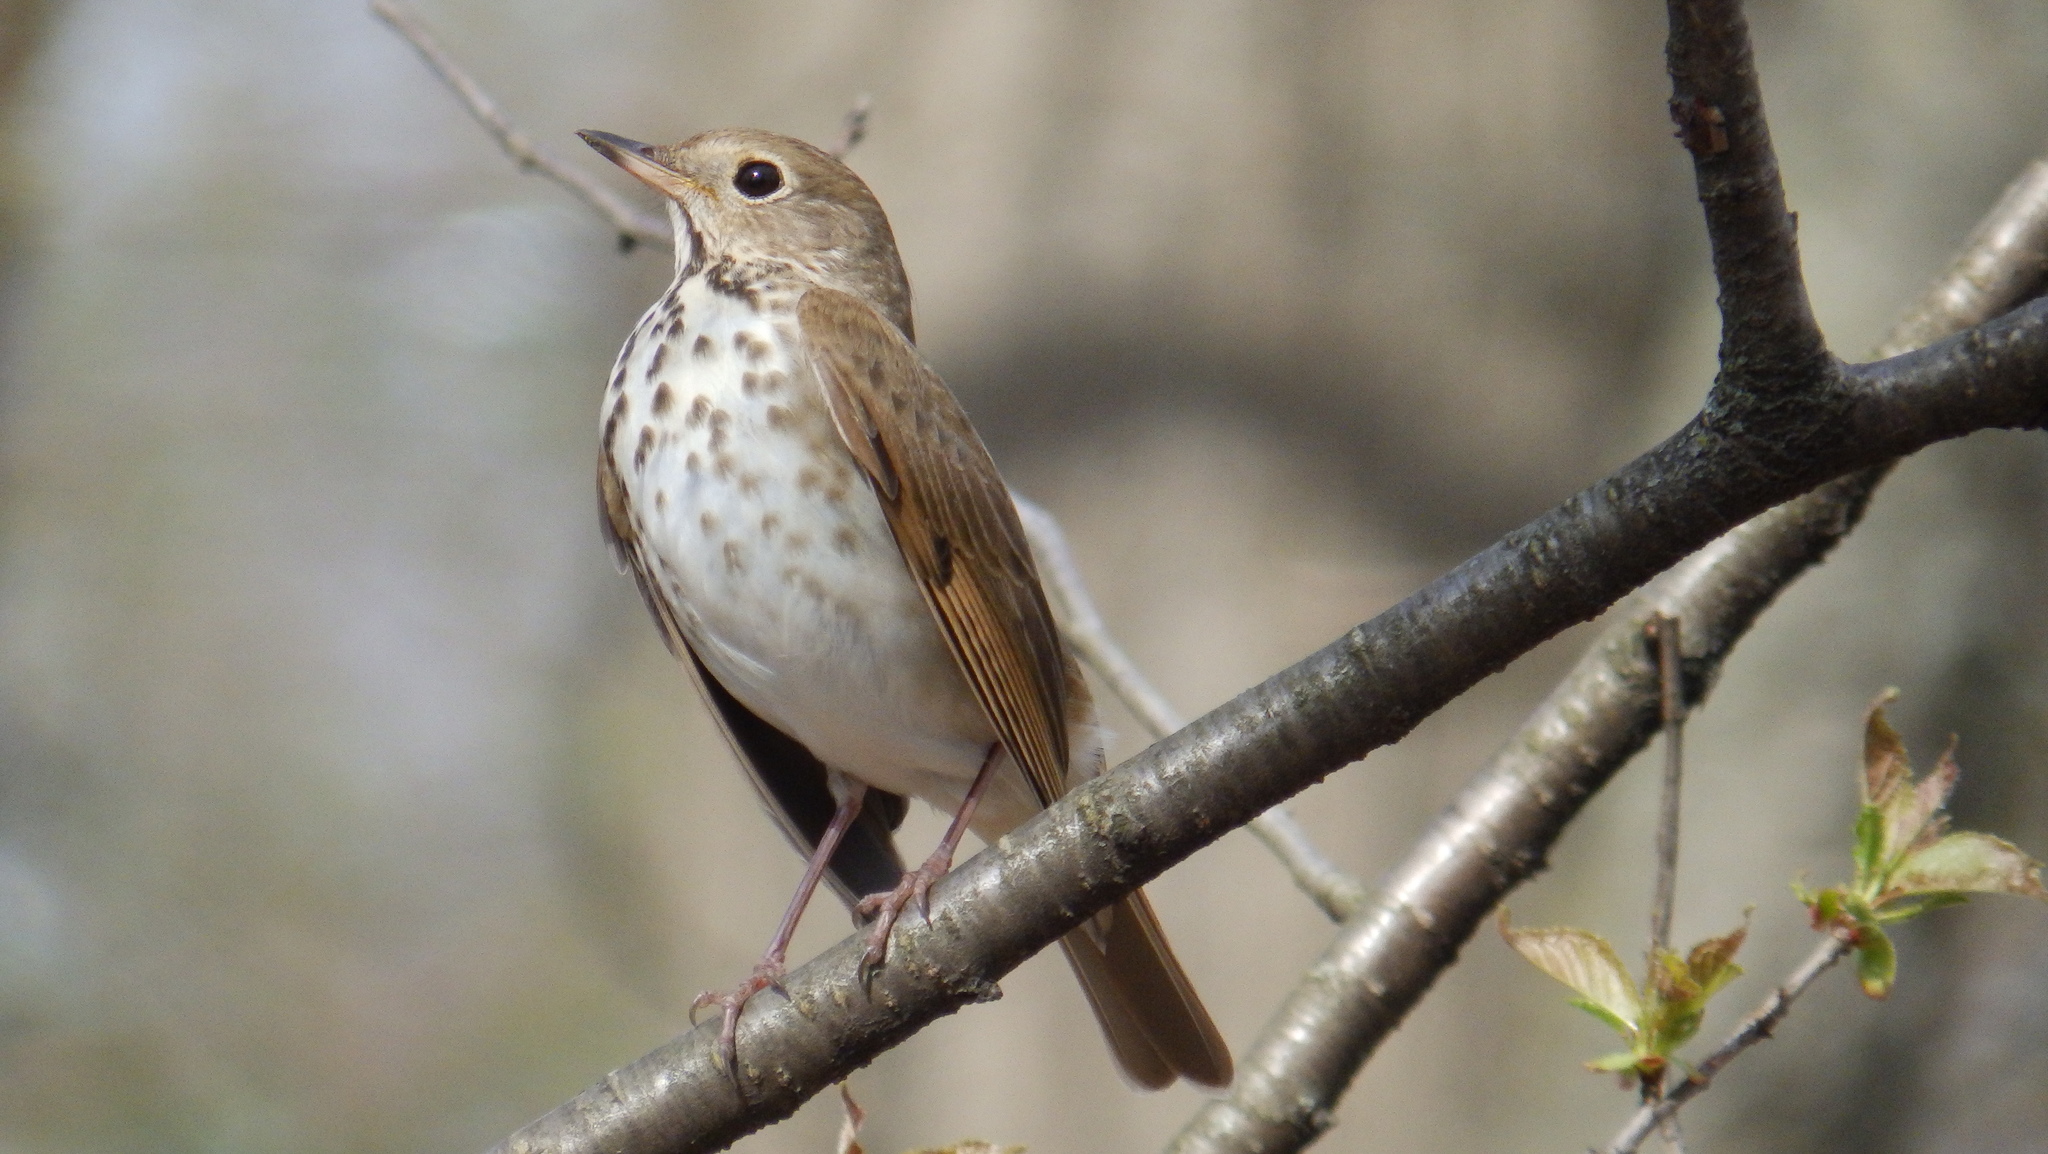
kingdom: Animalia
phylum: Chordata
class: Aves
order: Passeriformes
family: Turdidae
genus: Catharus
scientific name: Catharus guttatus
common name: Hermit thrush
